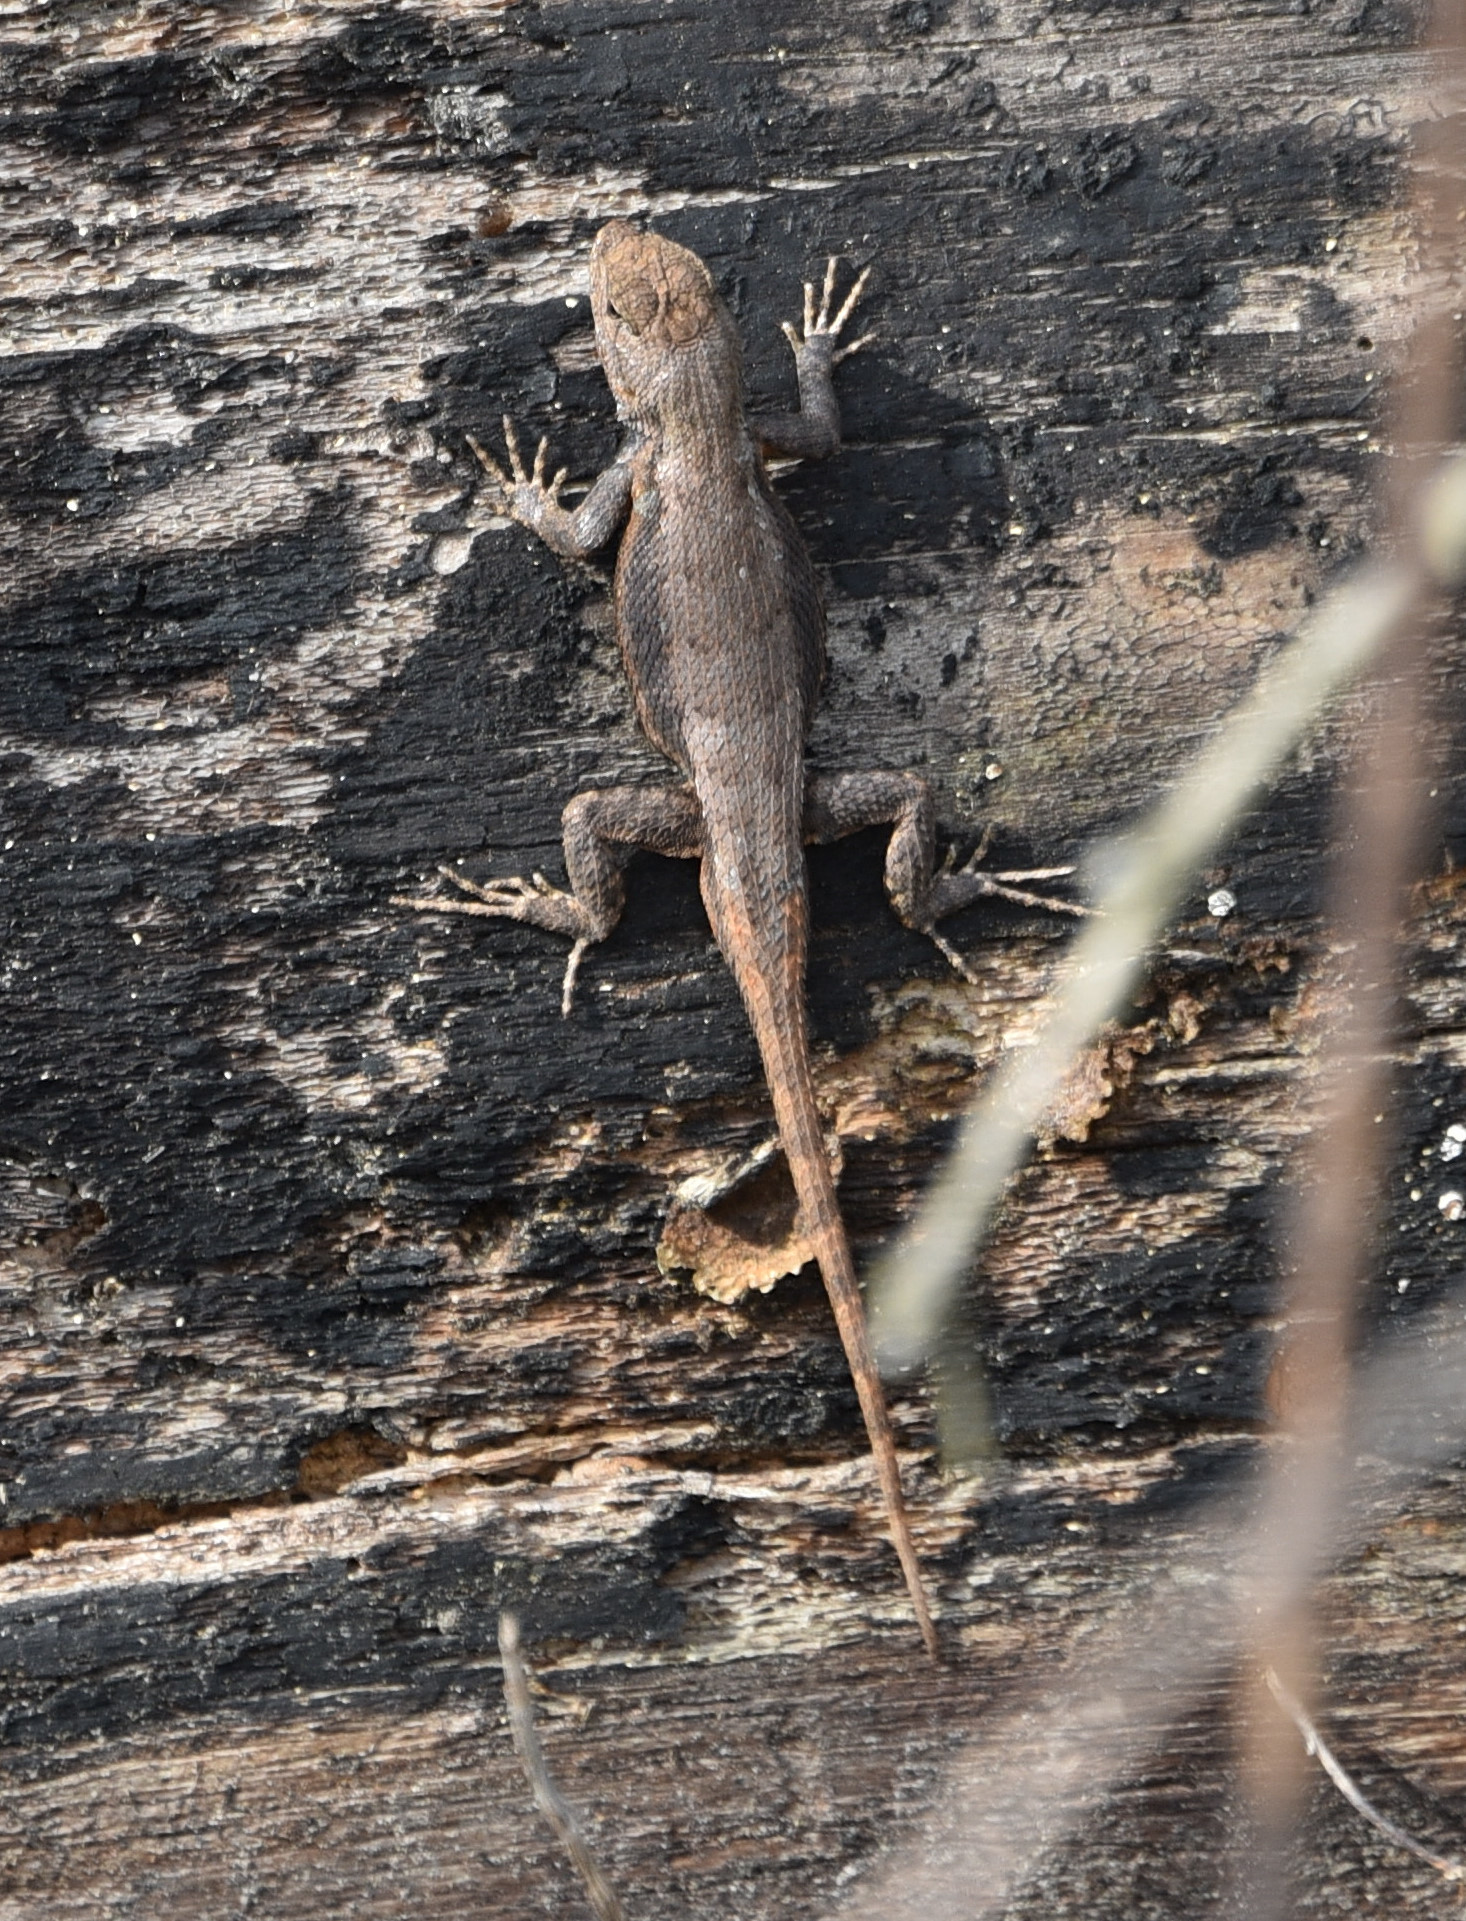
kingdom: Animalia
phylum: Chordata
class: Squamata
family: Phrynosomatidae
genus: Sceloporus
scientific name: Sceloporus consobrinus
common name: Southern prairie lizard
